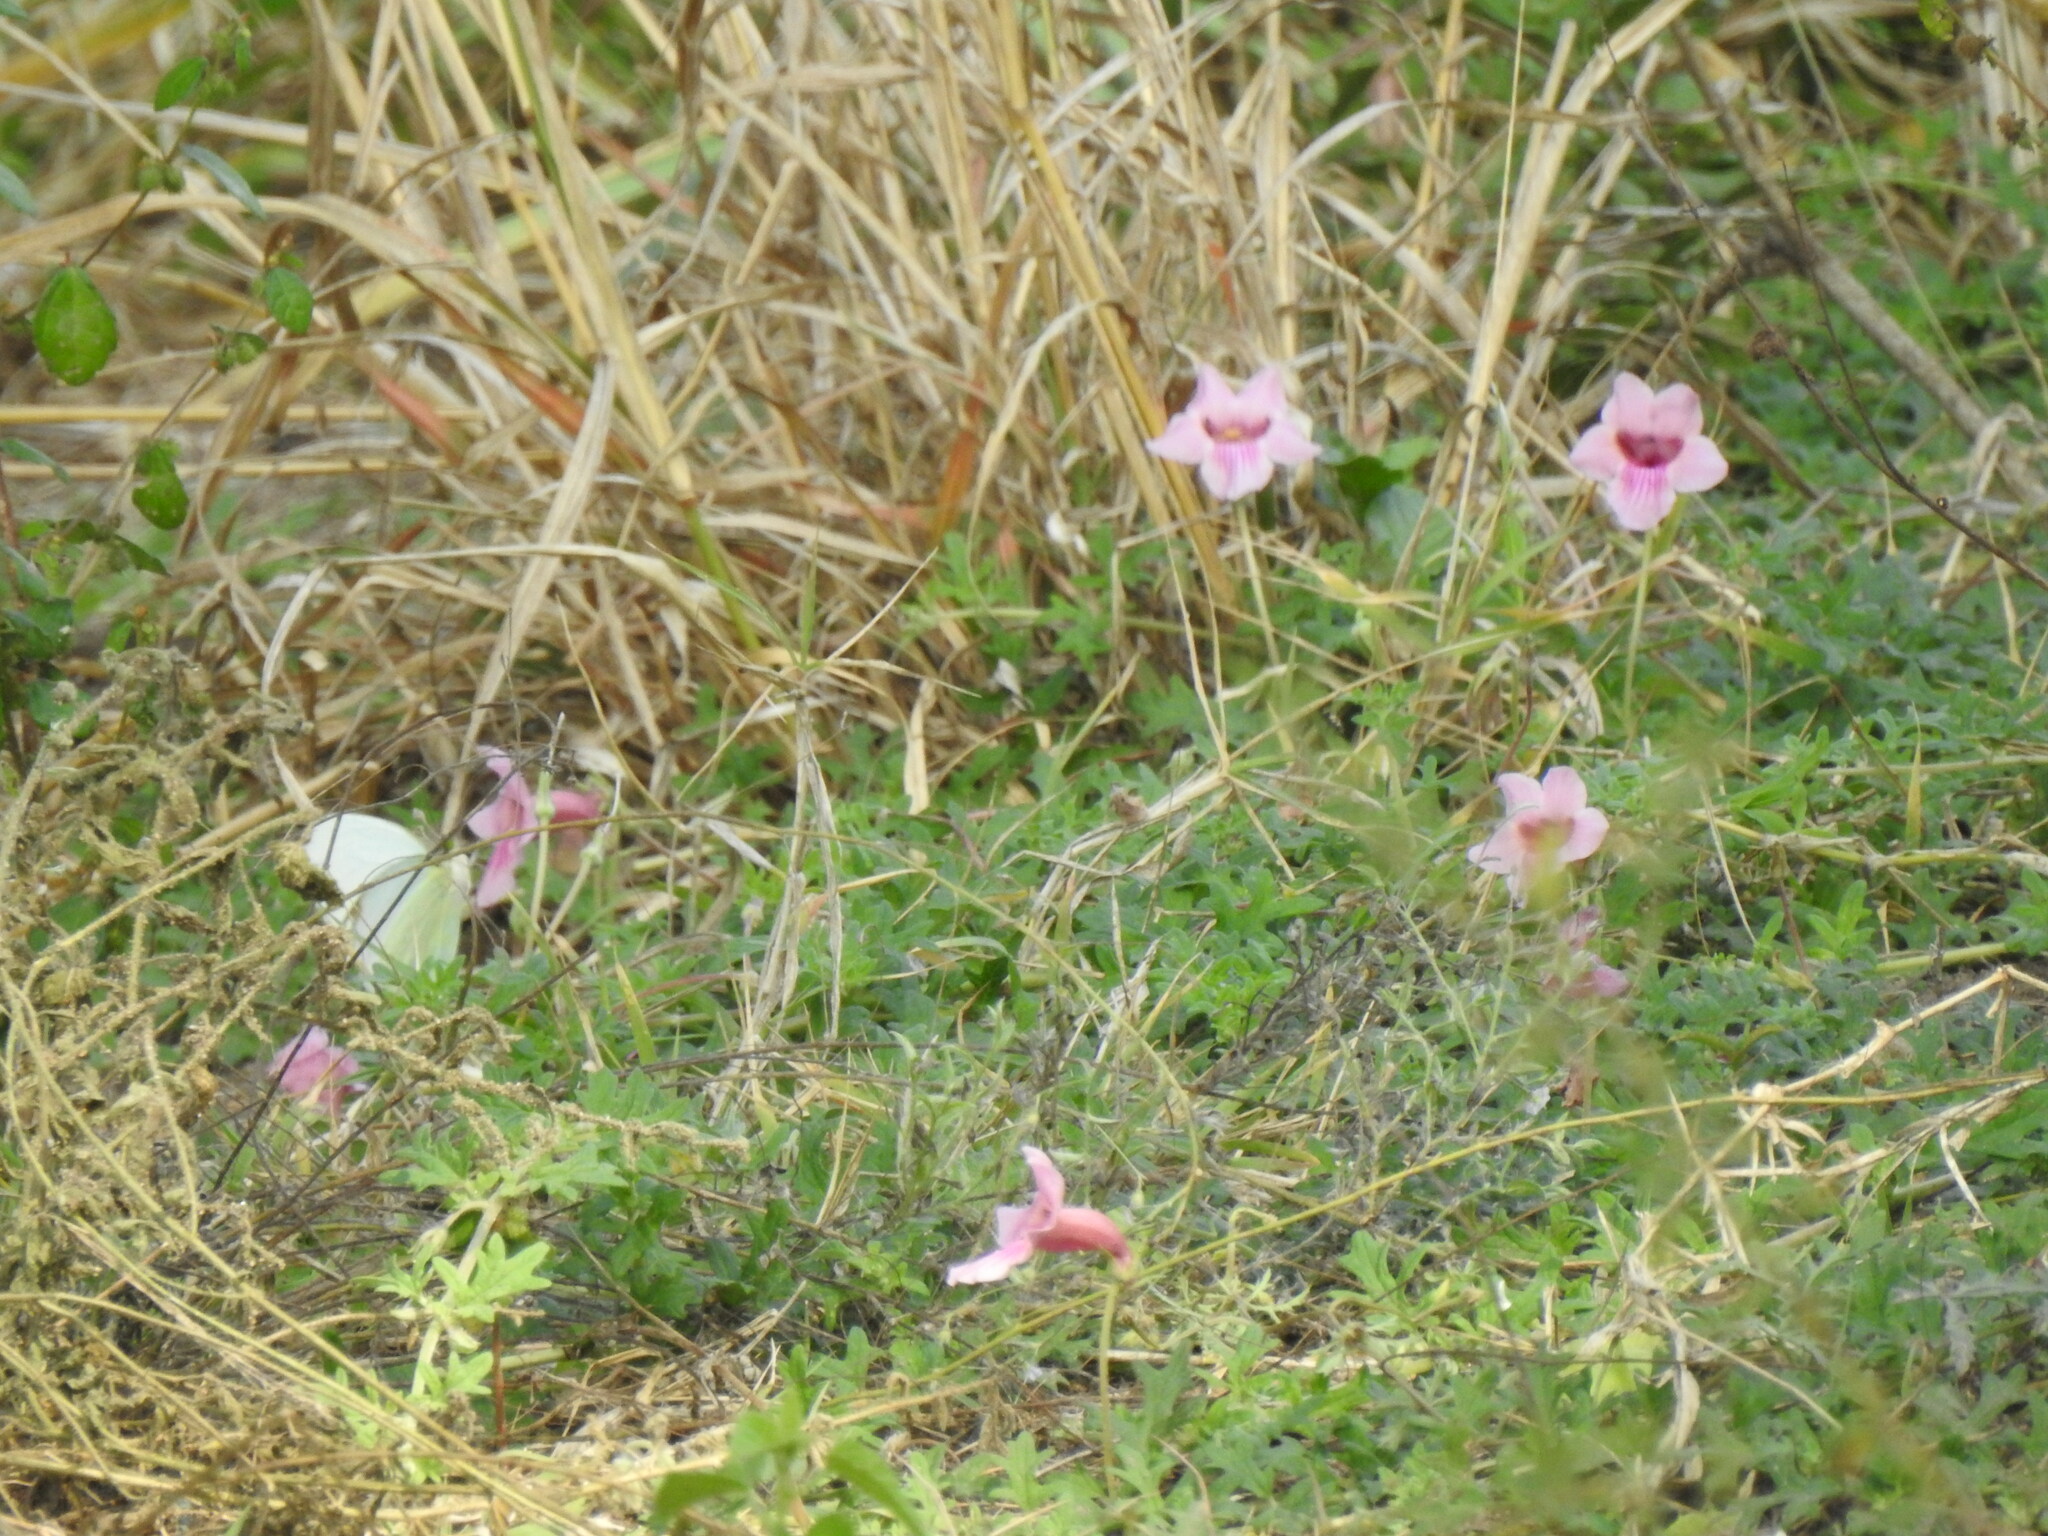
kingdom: Plantae
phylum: Tracheophyta
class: Magnoliopsida
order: Lamiales
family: Pedaliaceae
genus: Dicerocaryum
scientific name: Dicerocaryum senecioides
